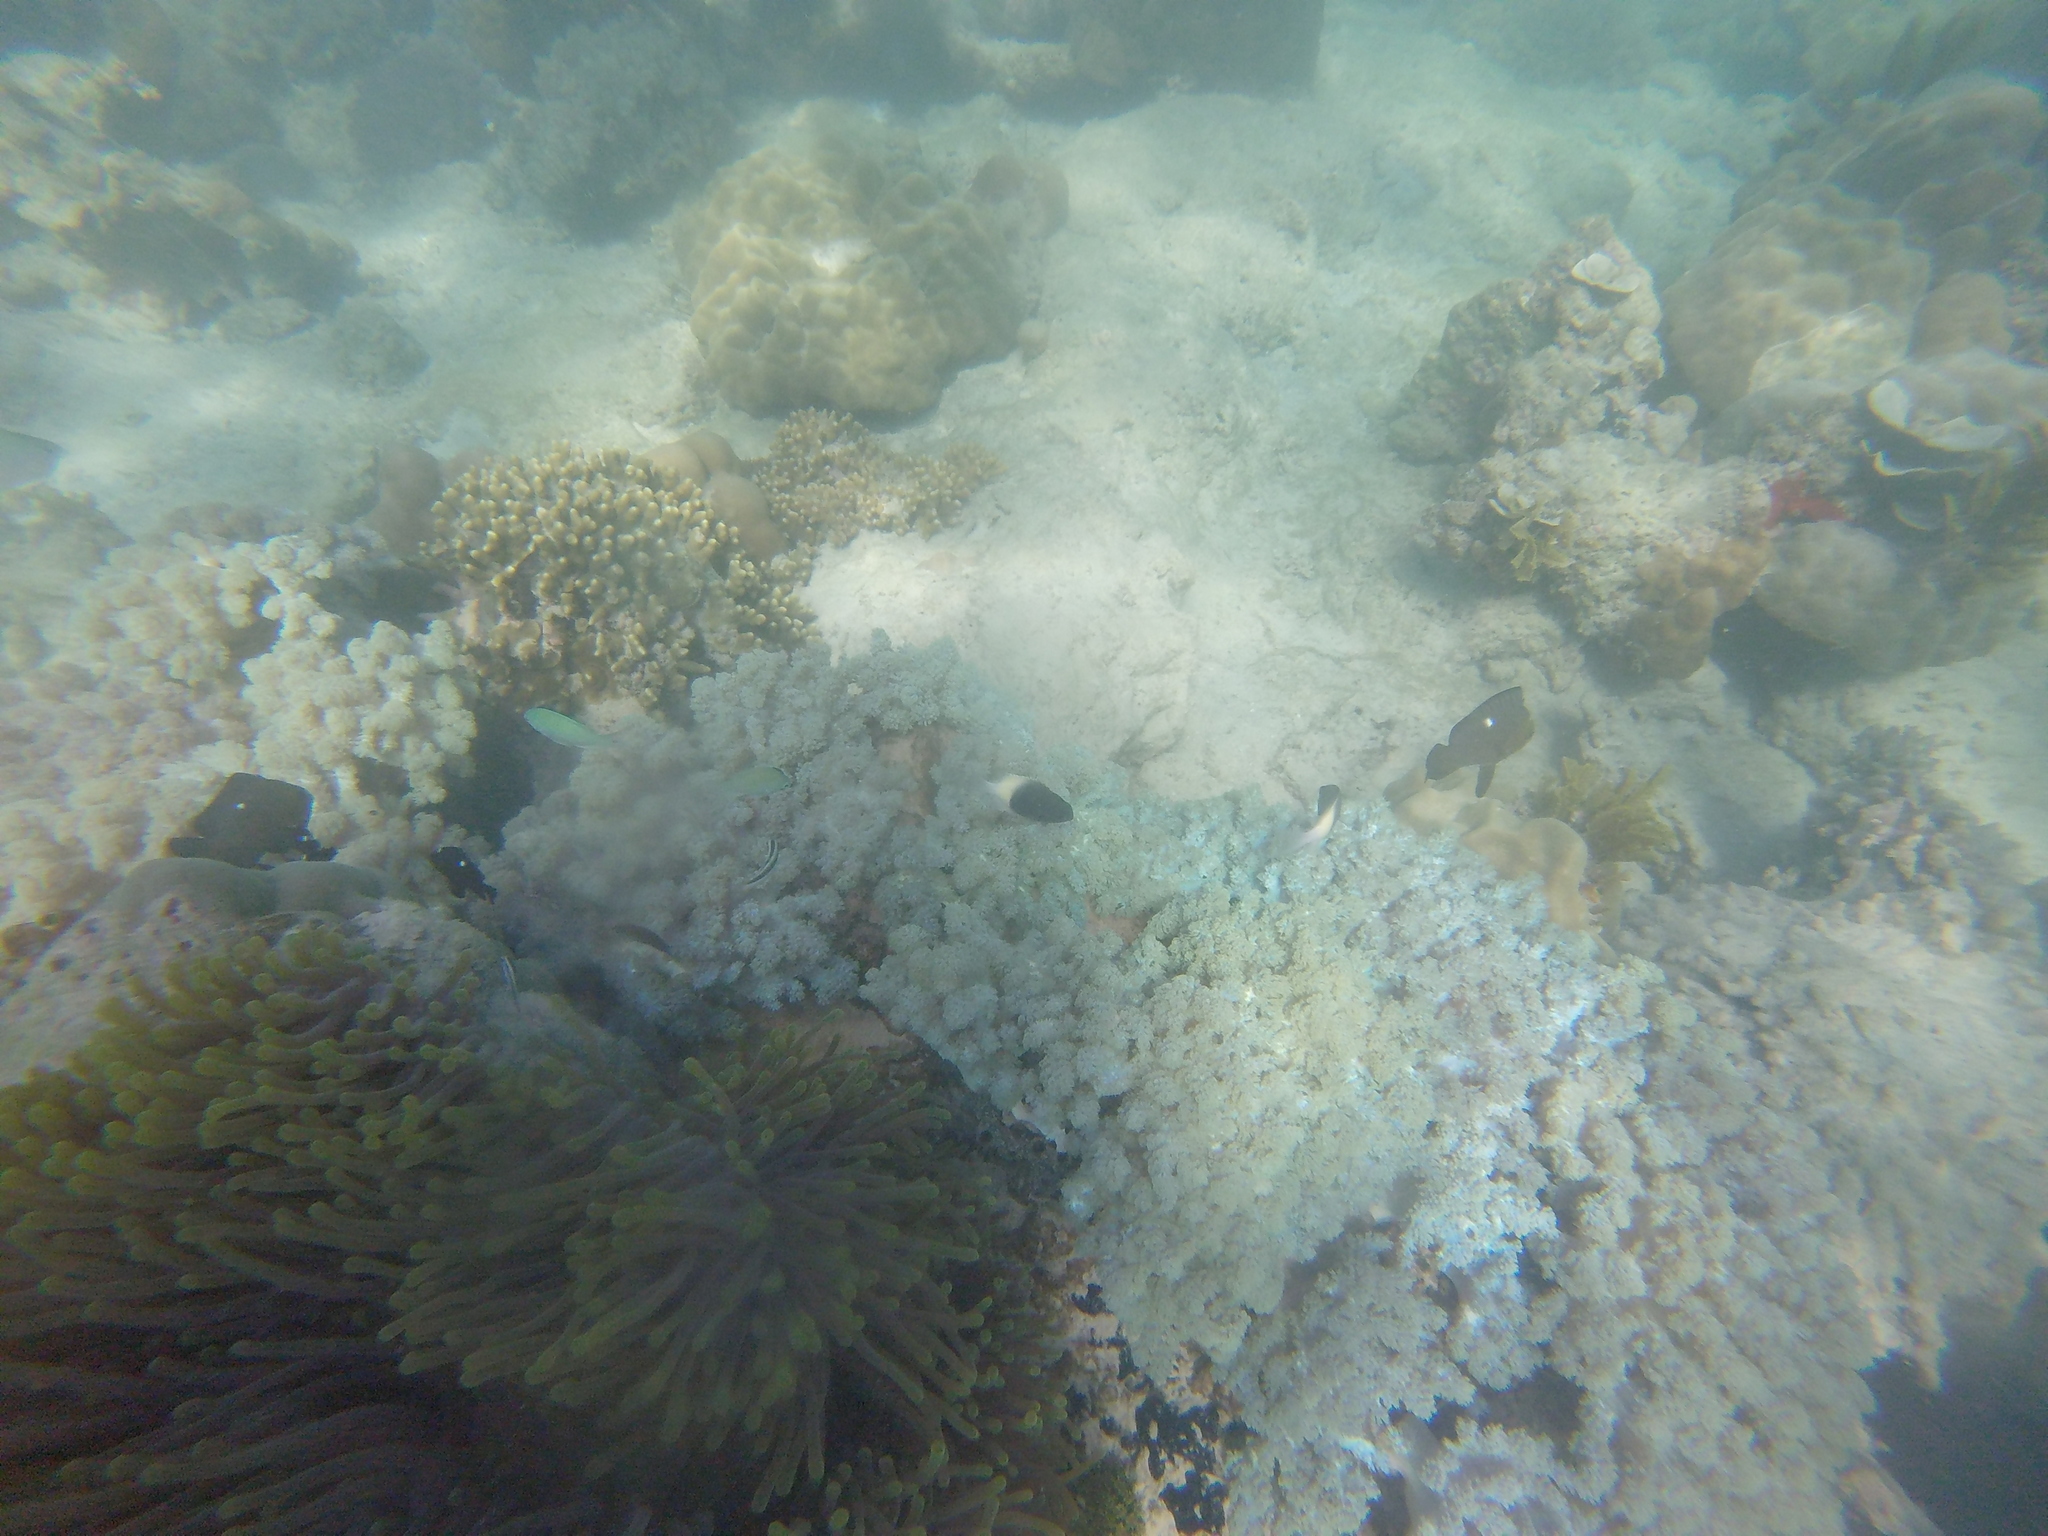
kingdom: Animalia
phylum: Chordata
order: Perciformes
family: Pomacentridae
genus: Chromis
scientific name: Chromis fieldi
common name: Chocolatedip chromis
